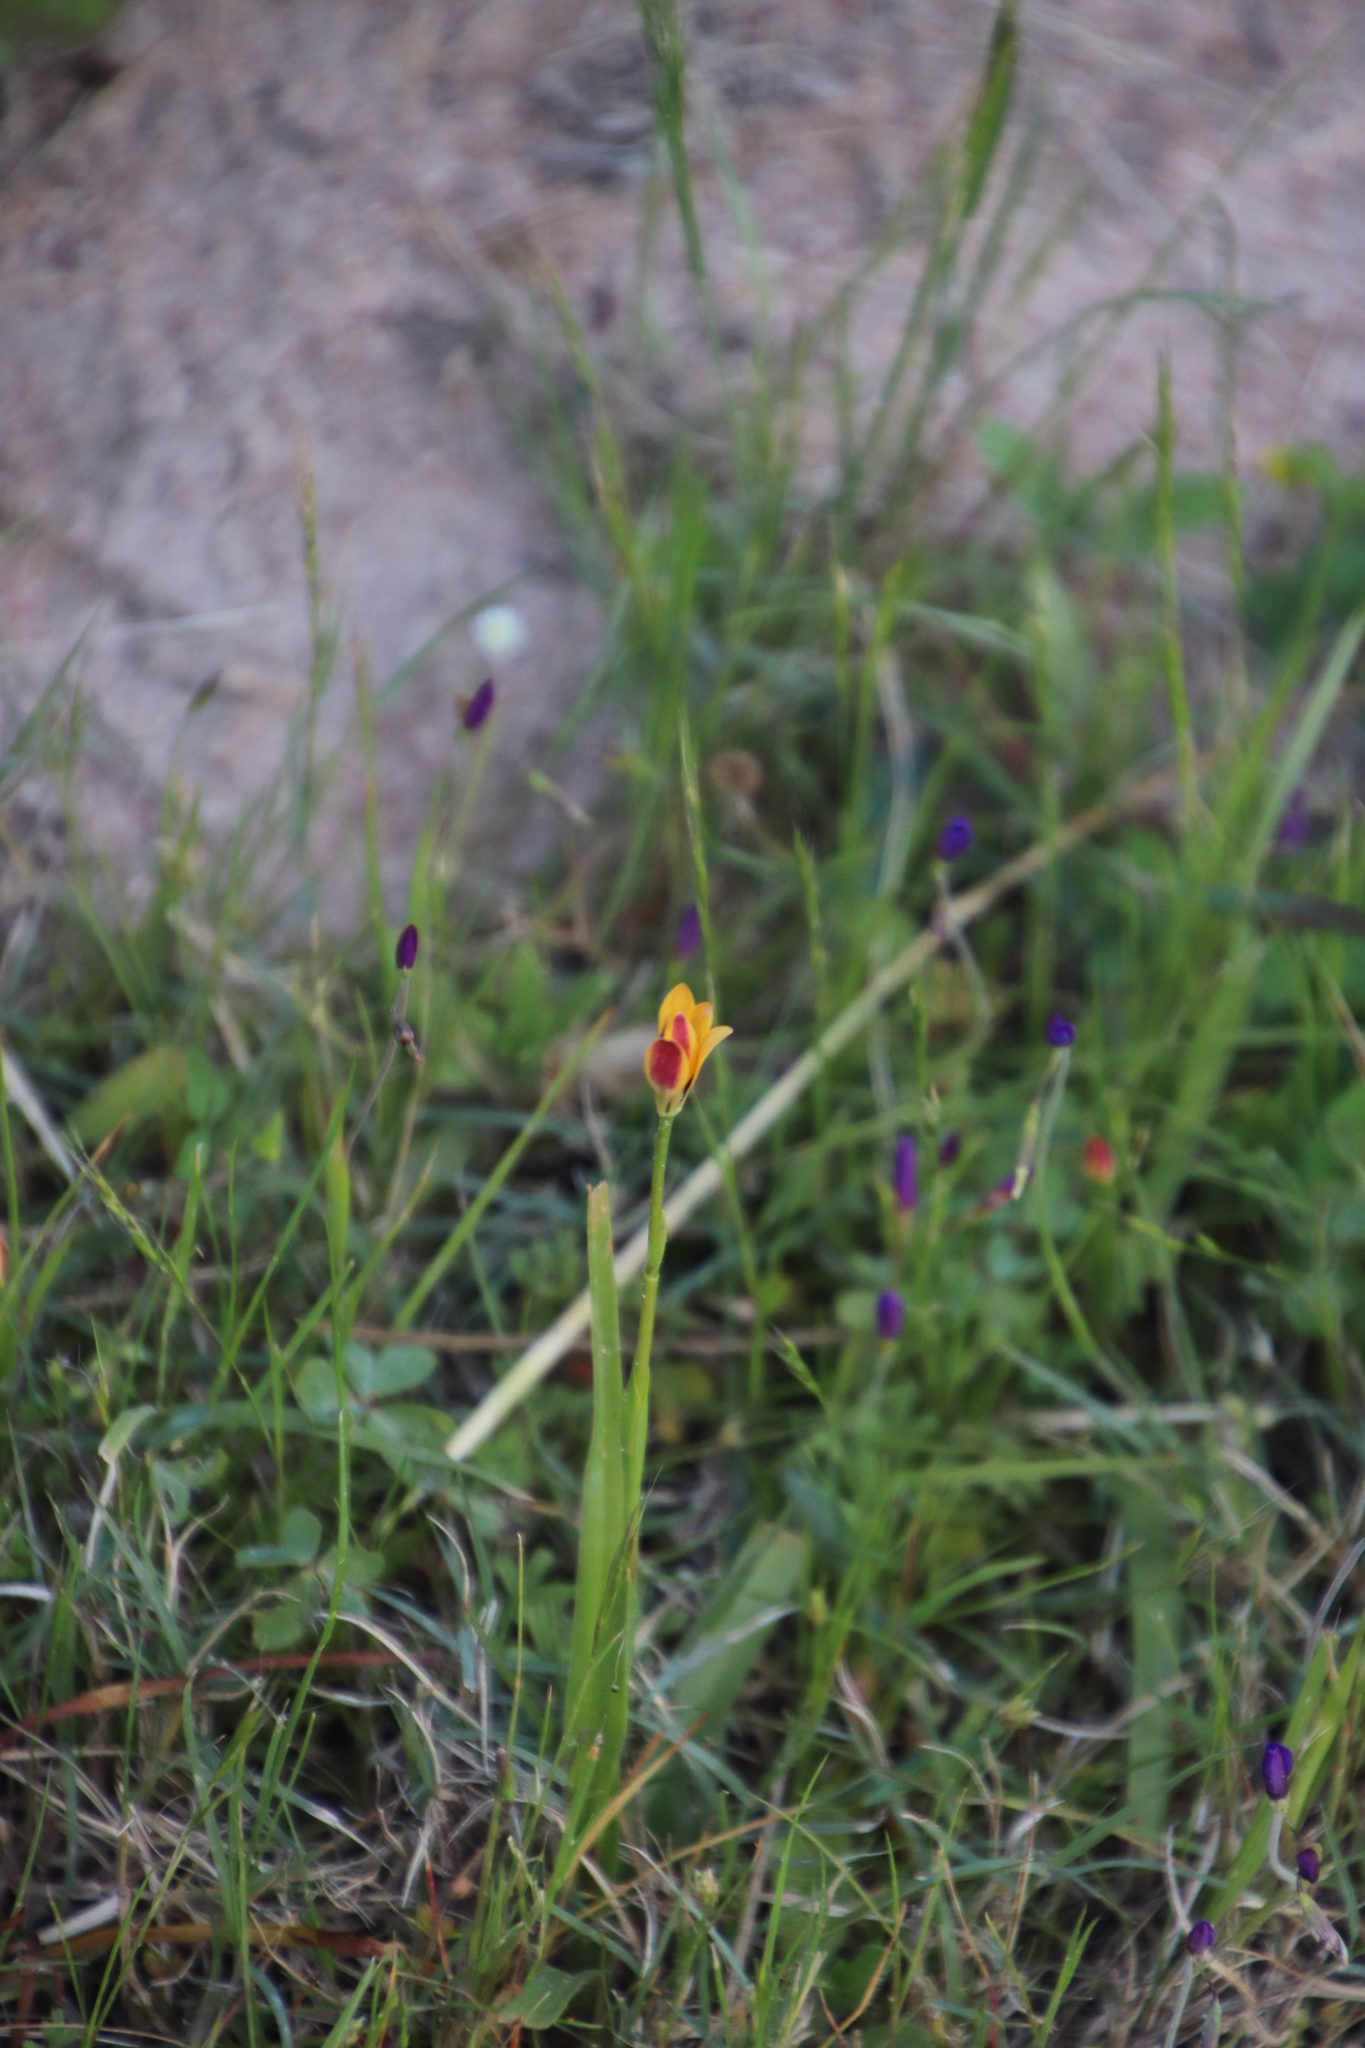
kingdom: Plantae
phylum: Tracheophyta
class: Liliopsida
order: Liliales
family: Colchicaceae
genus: Baeometra
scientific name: Baeometra uniflora
